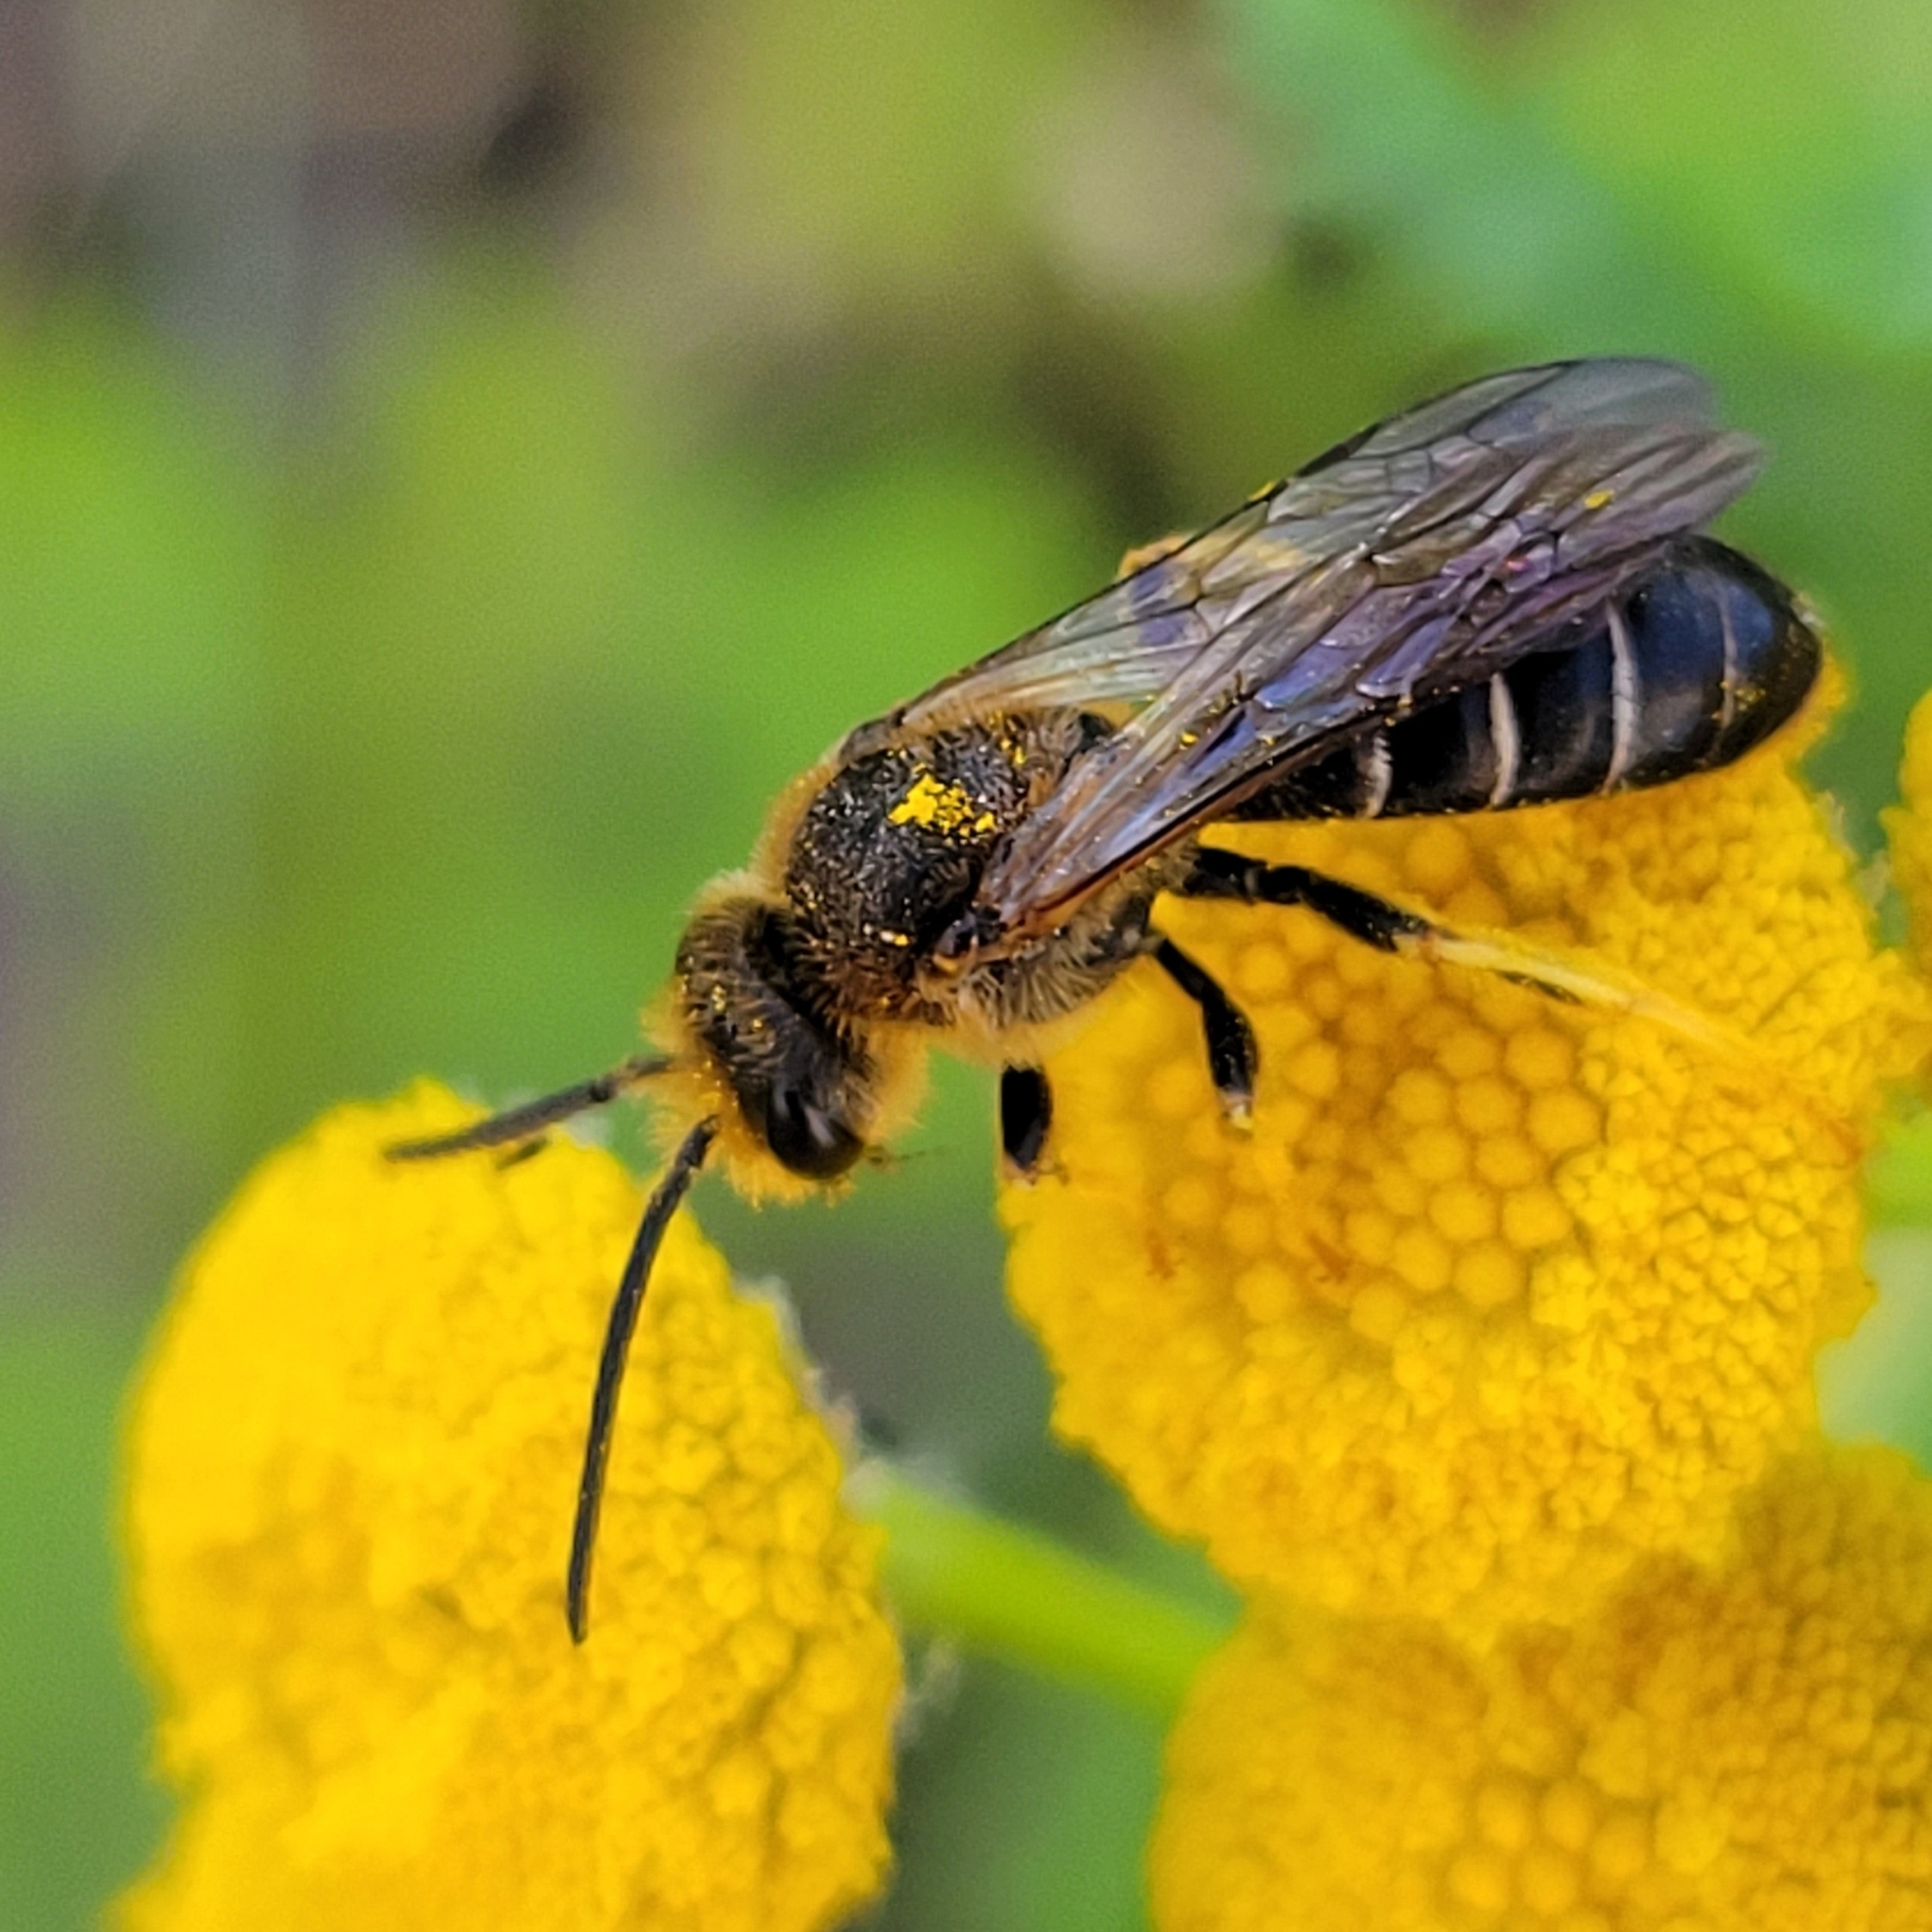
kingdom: Animalia
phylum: Arthropoda
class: Insecta
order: Hymenoptera
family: Halictidae
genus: Halictus
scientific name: Halictus rubicundus
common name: Orange-legged furrow bee
